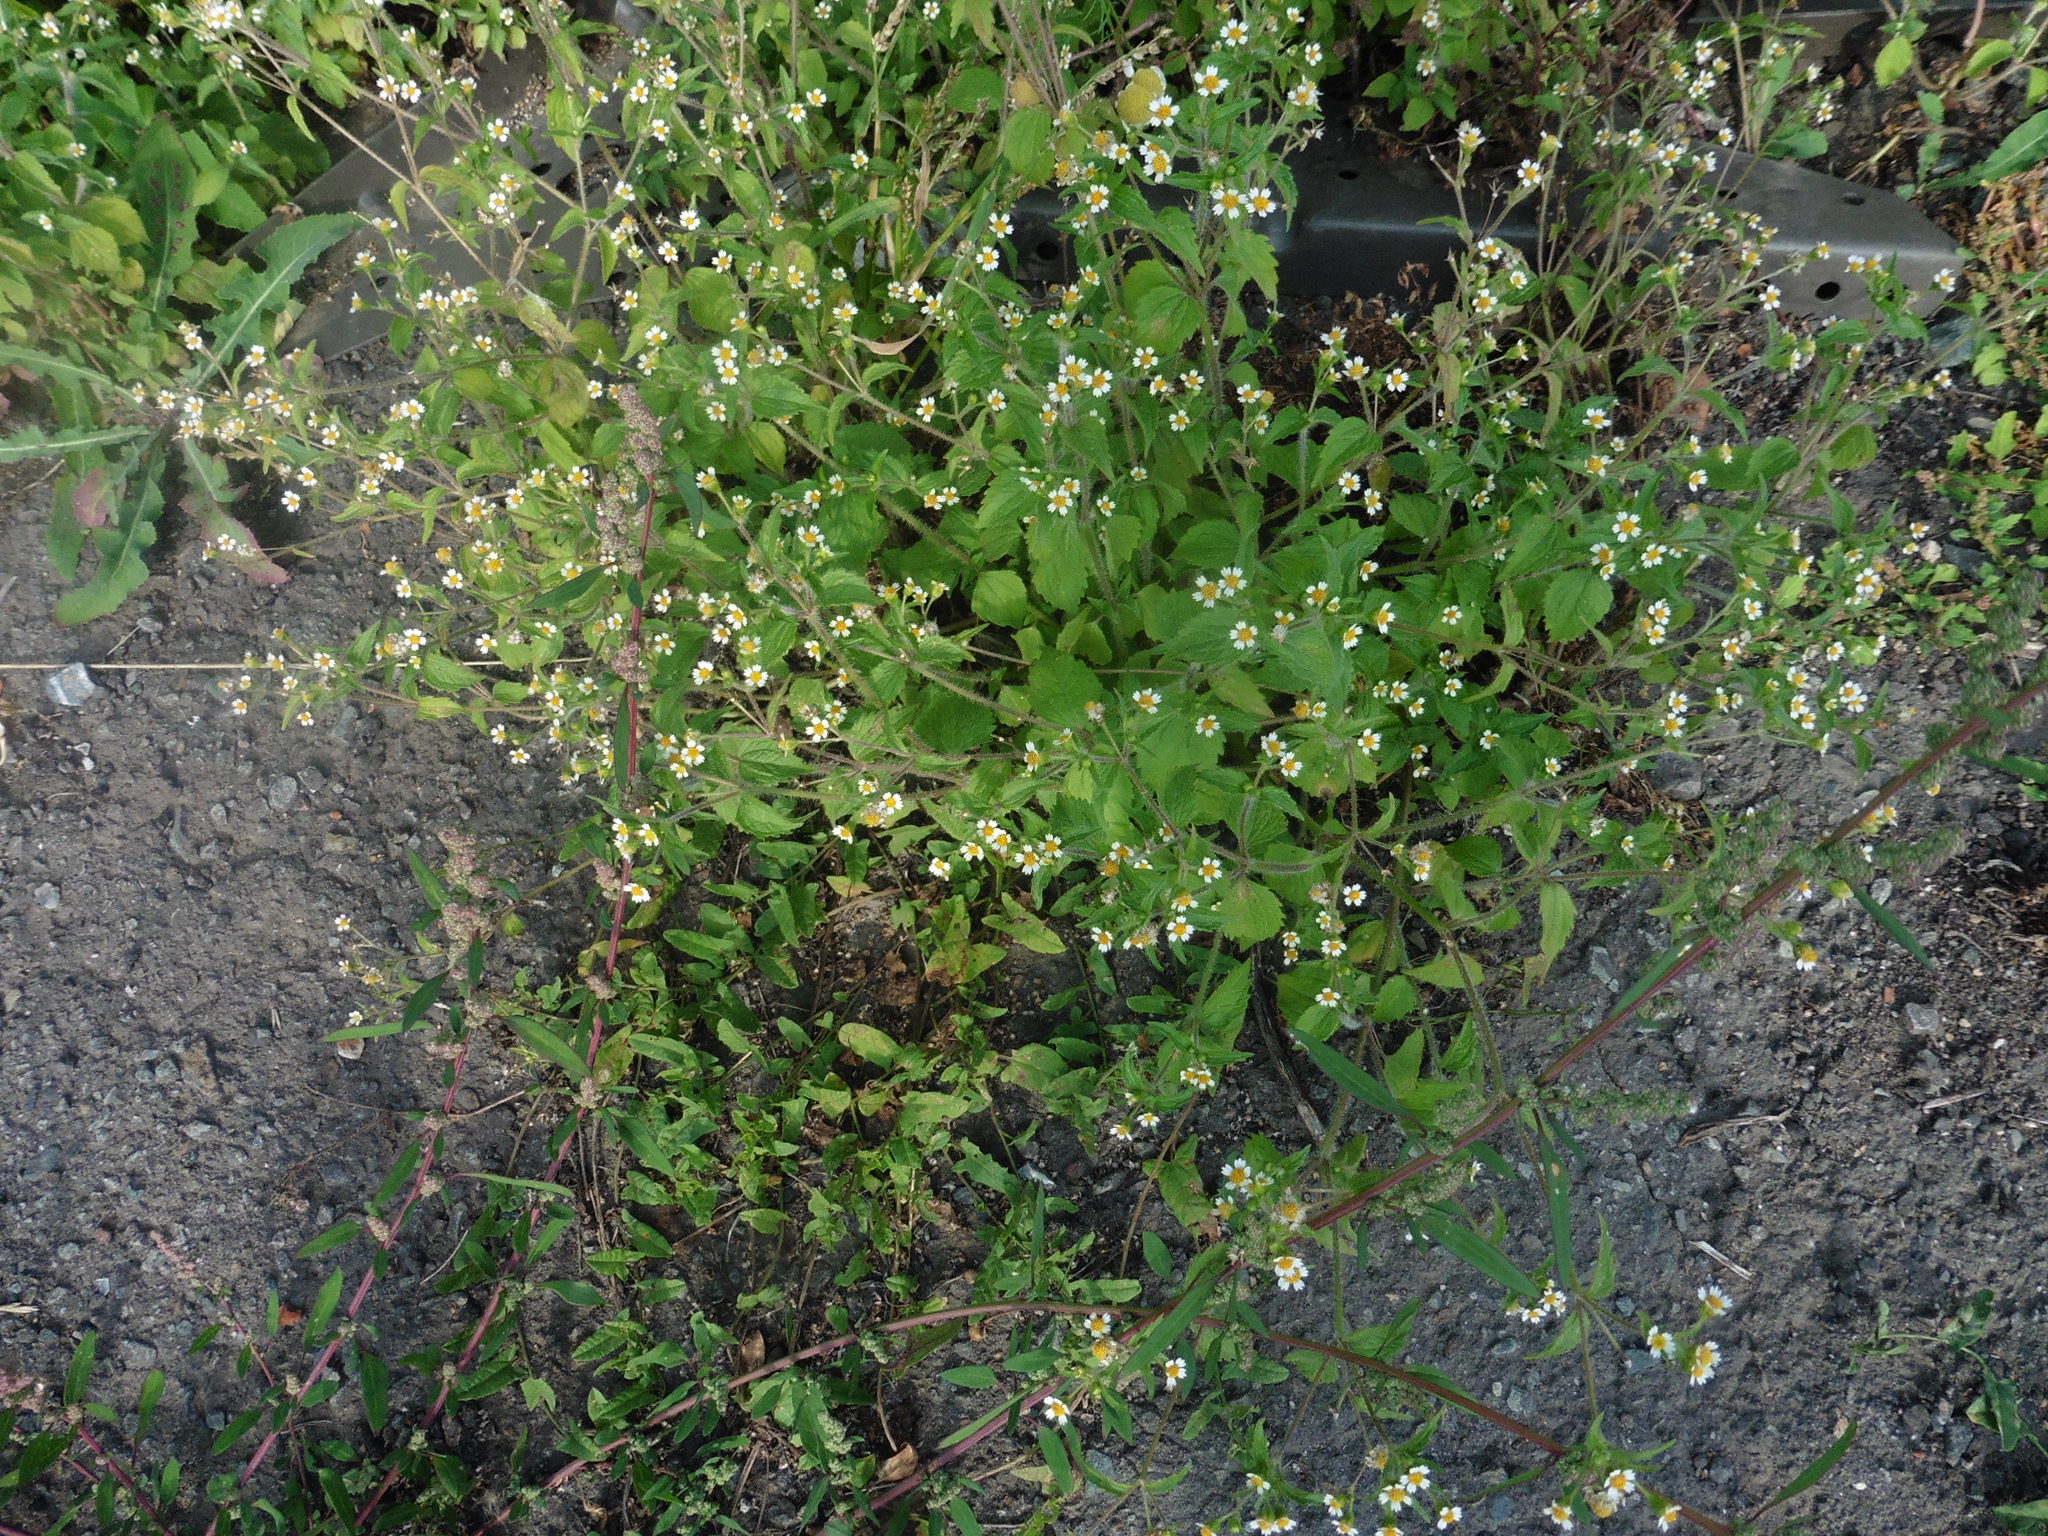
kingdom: Plantae
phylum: Tracheophyta
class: Magnoliopsida
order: Asterales
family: Asteraceae
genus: Galinsoga
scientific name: Galinsoga quadriradiata
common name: Shaggy soldier
